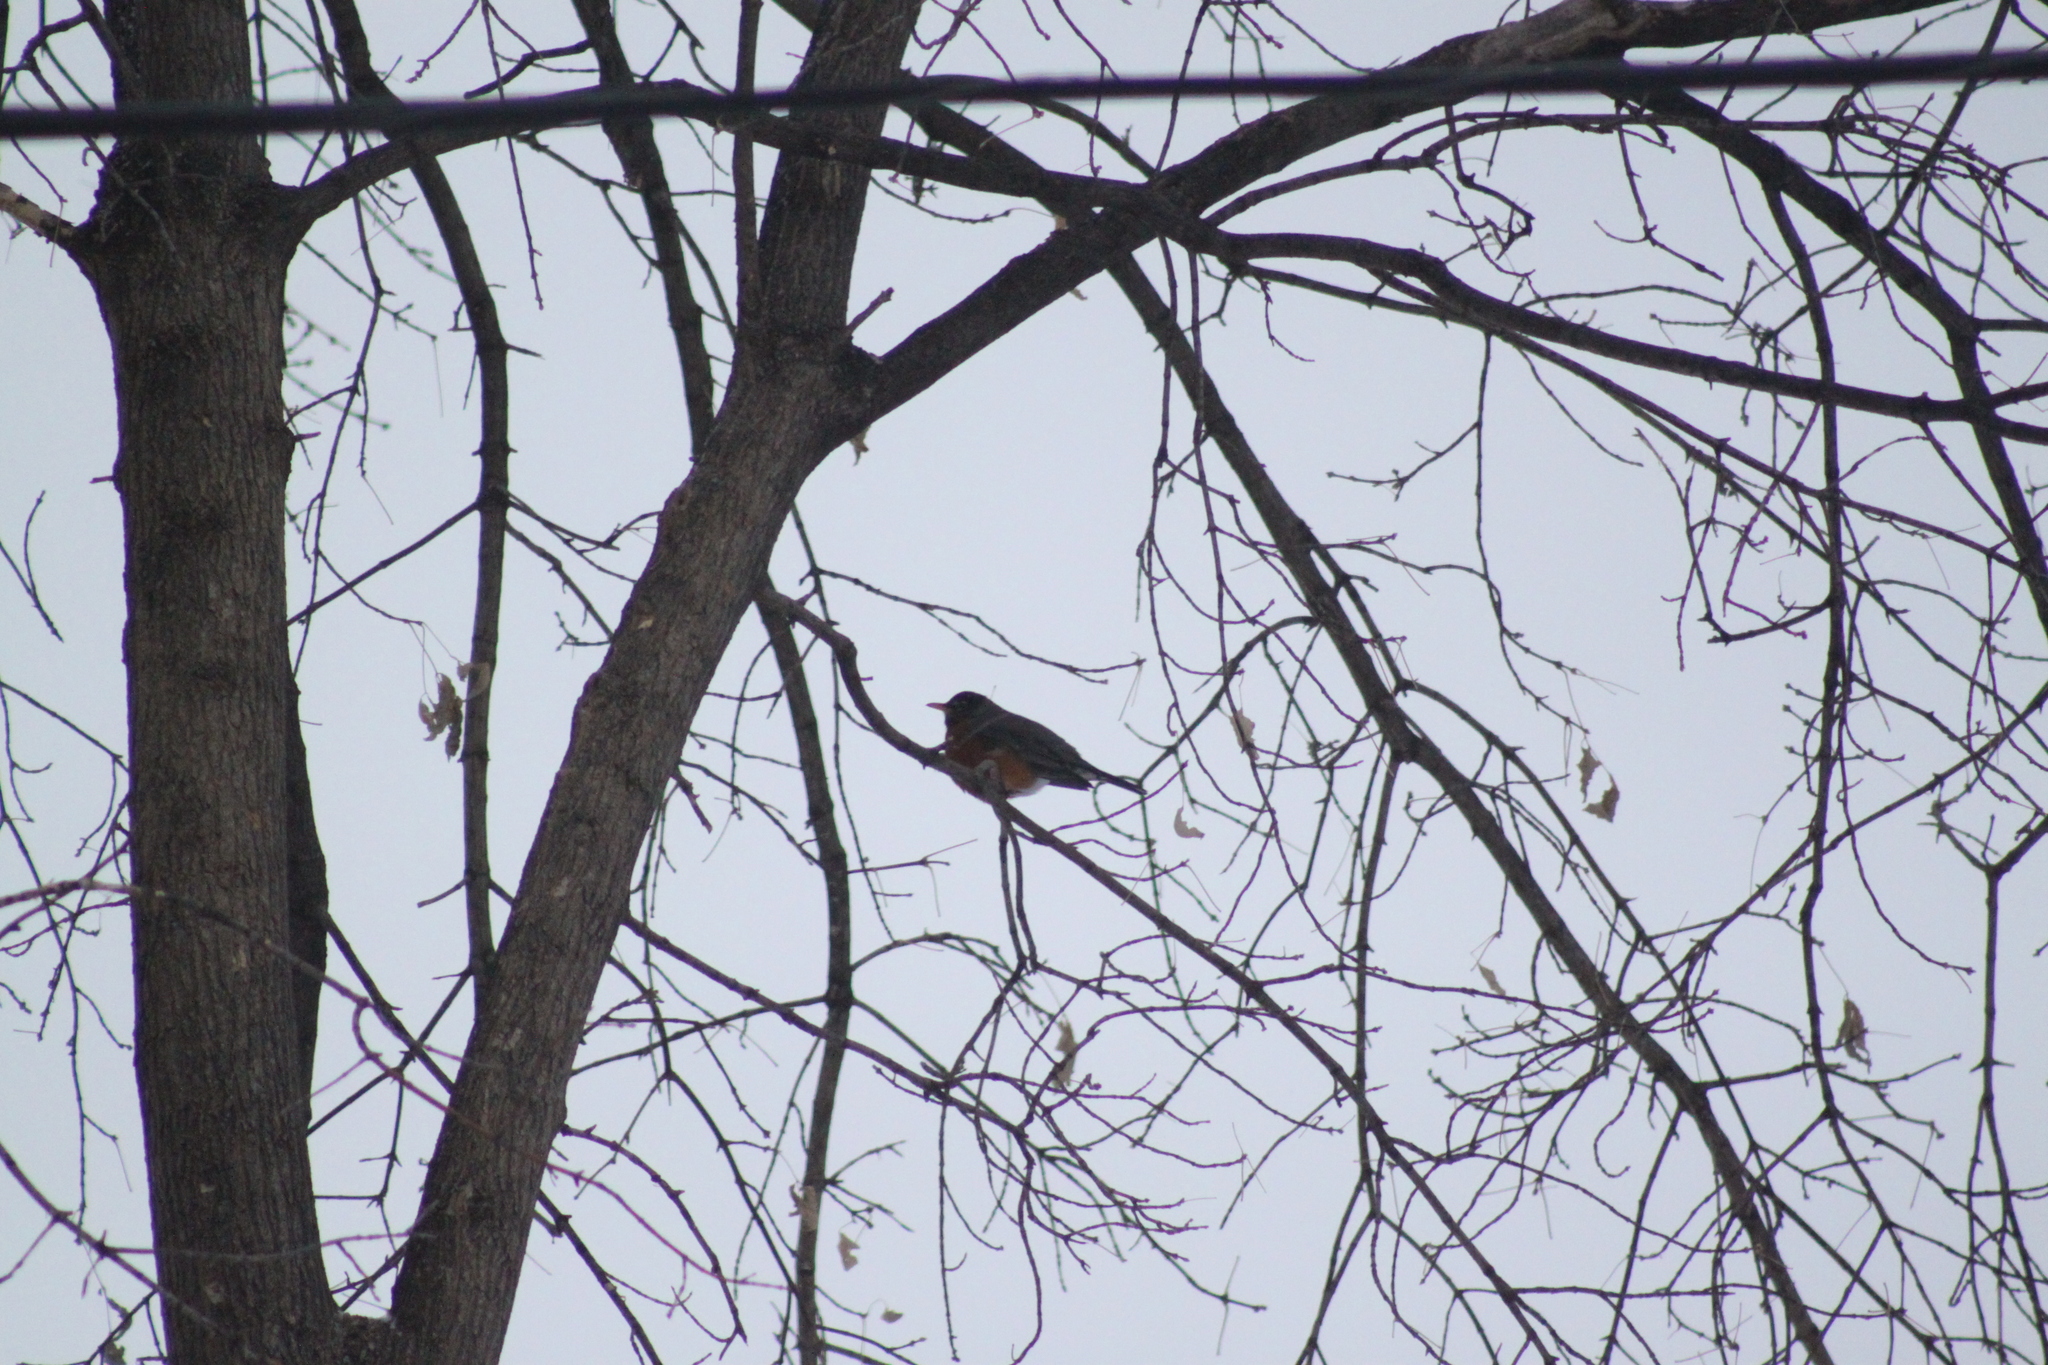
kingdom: Animalia
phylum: Chordata
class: Aves
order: Passeriformes
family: Turdidae
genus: Turdus
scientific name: Turdus migratorius
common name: American robin
